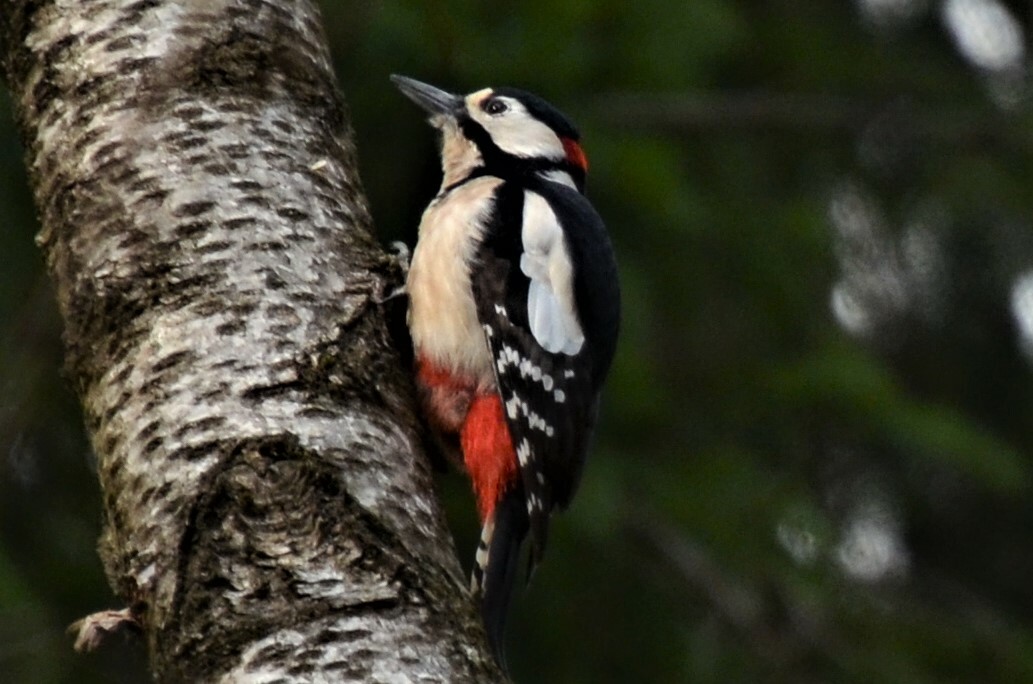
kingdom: Animalia
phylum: Chordata
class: Aves
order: Piciformes
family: Picidae
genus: Dendrocopos
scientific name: Dendrocopos major
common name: Great spotted woodpecker
